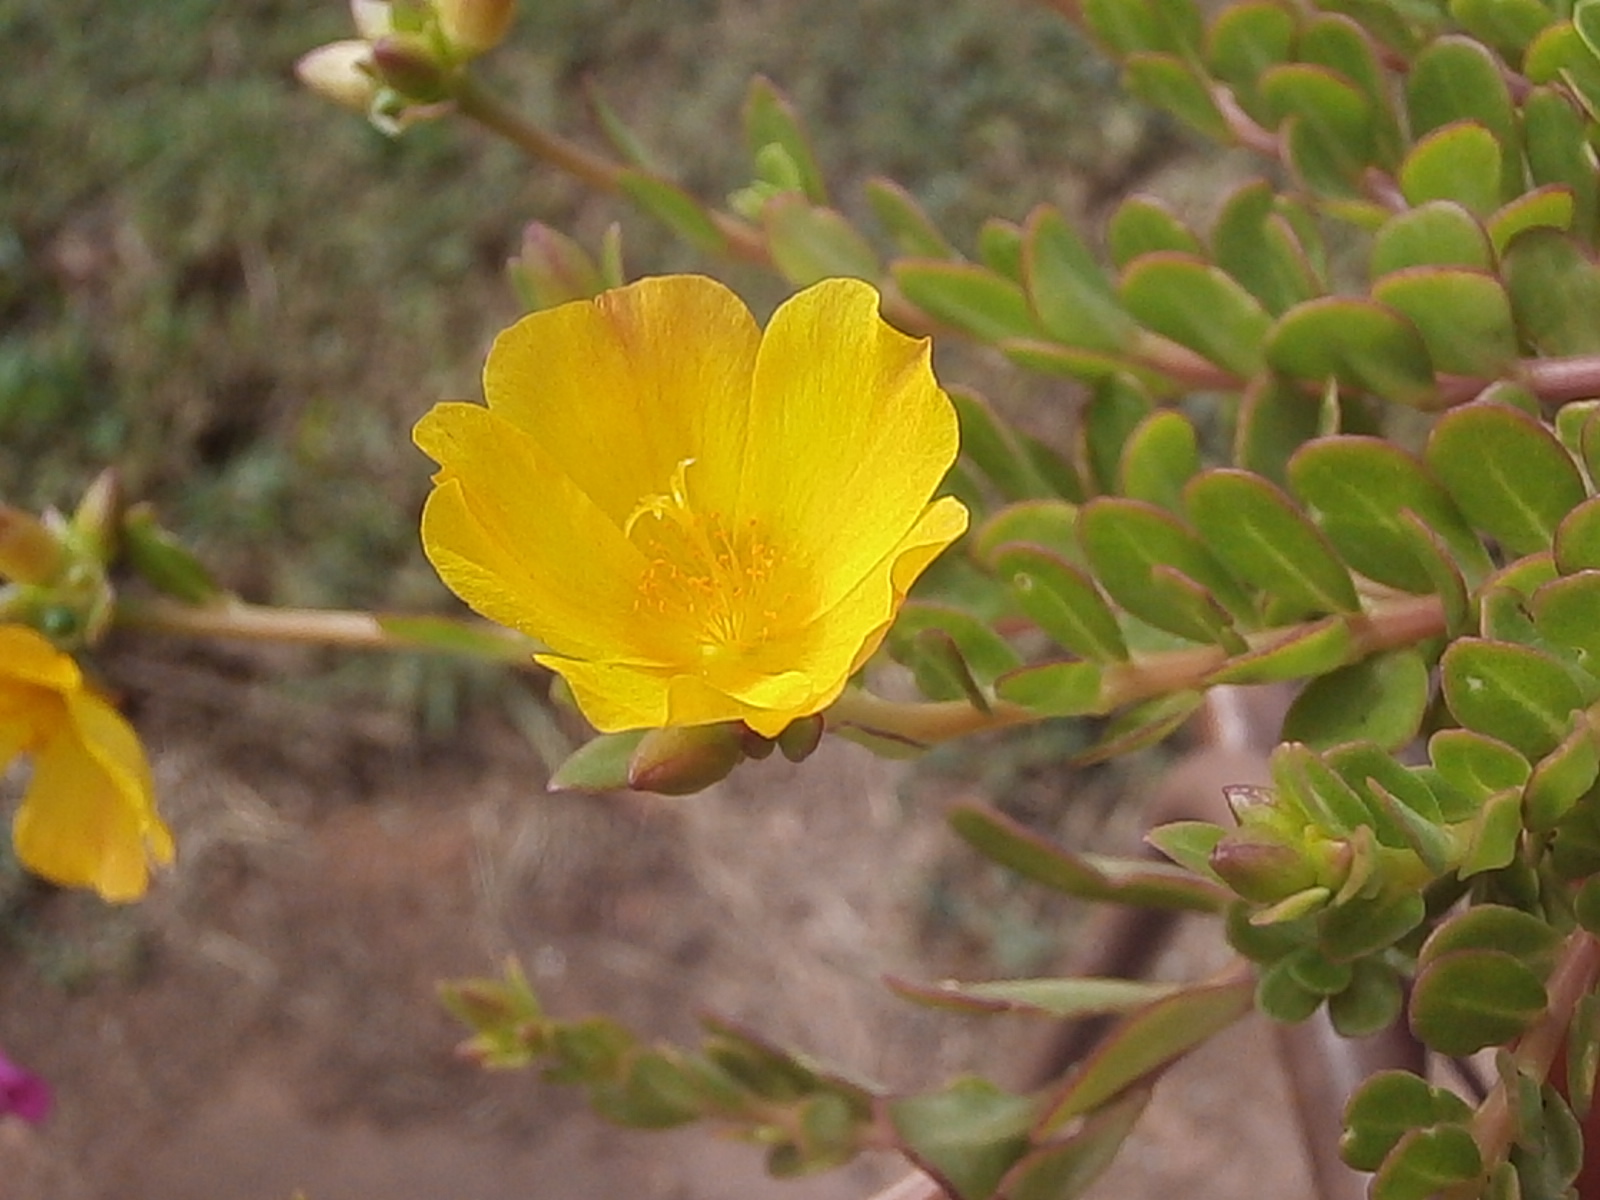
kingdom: Plantae
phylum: Tracheophyta
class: Magnoliopsida
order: Caryophyllales
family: Portulacaceae
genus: Portulaca
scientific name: Portulaca oleracea
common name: Common purslane
